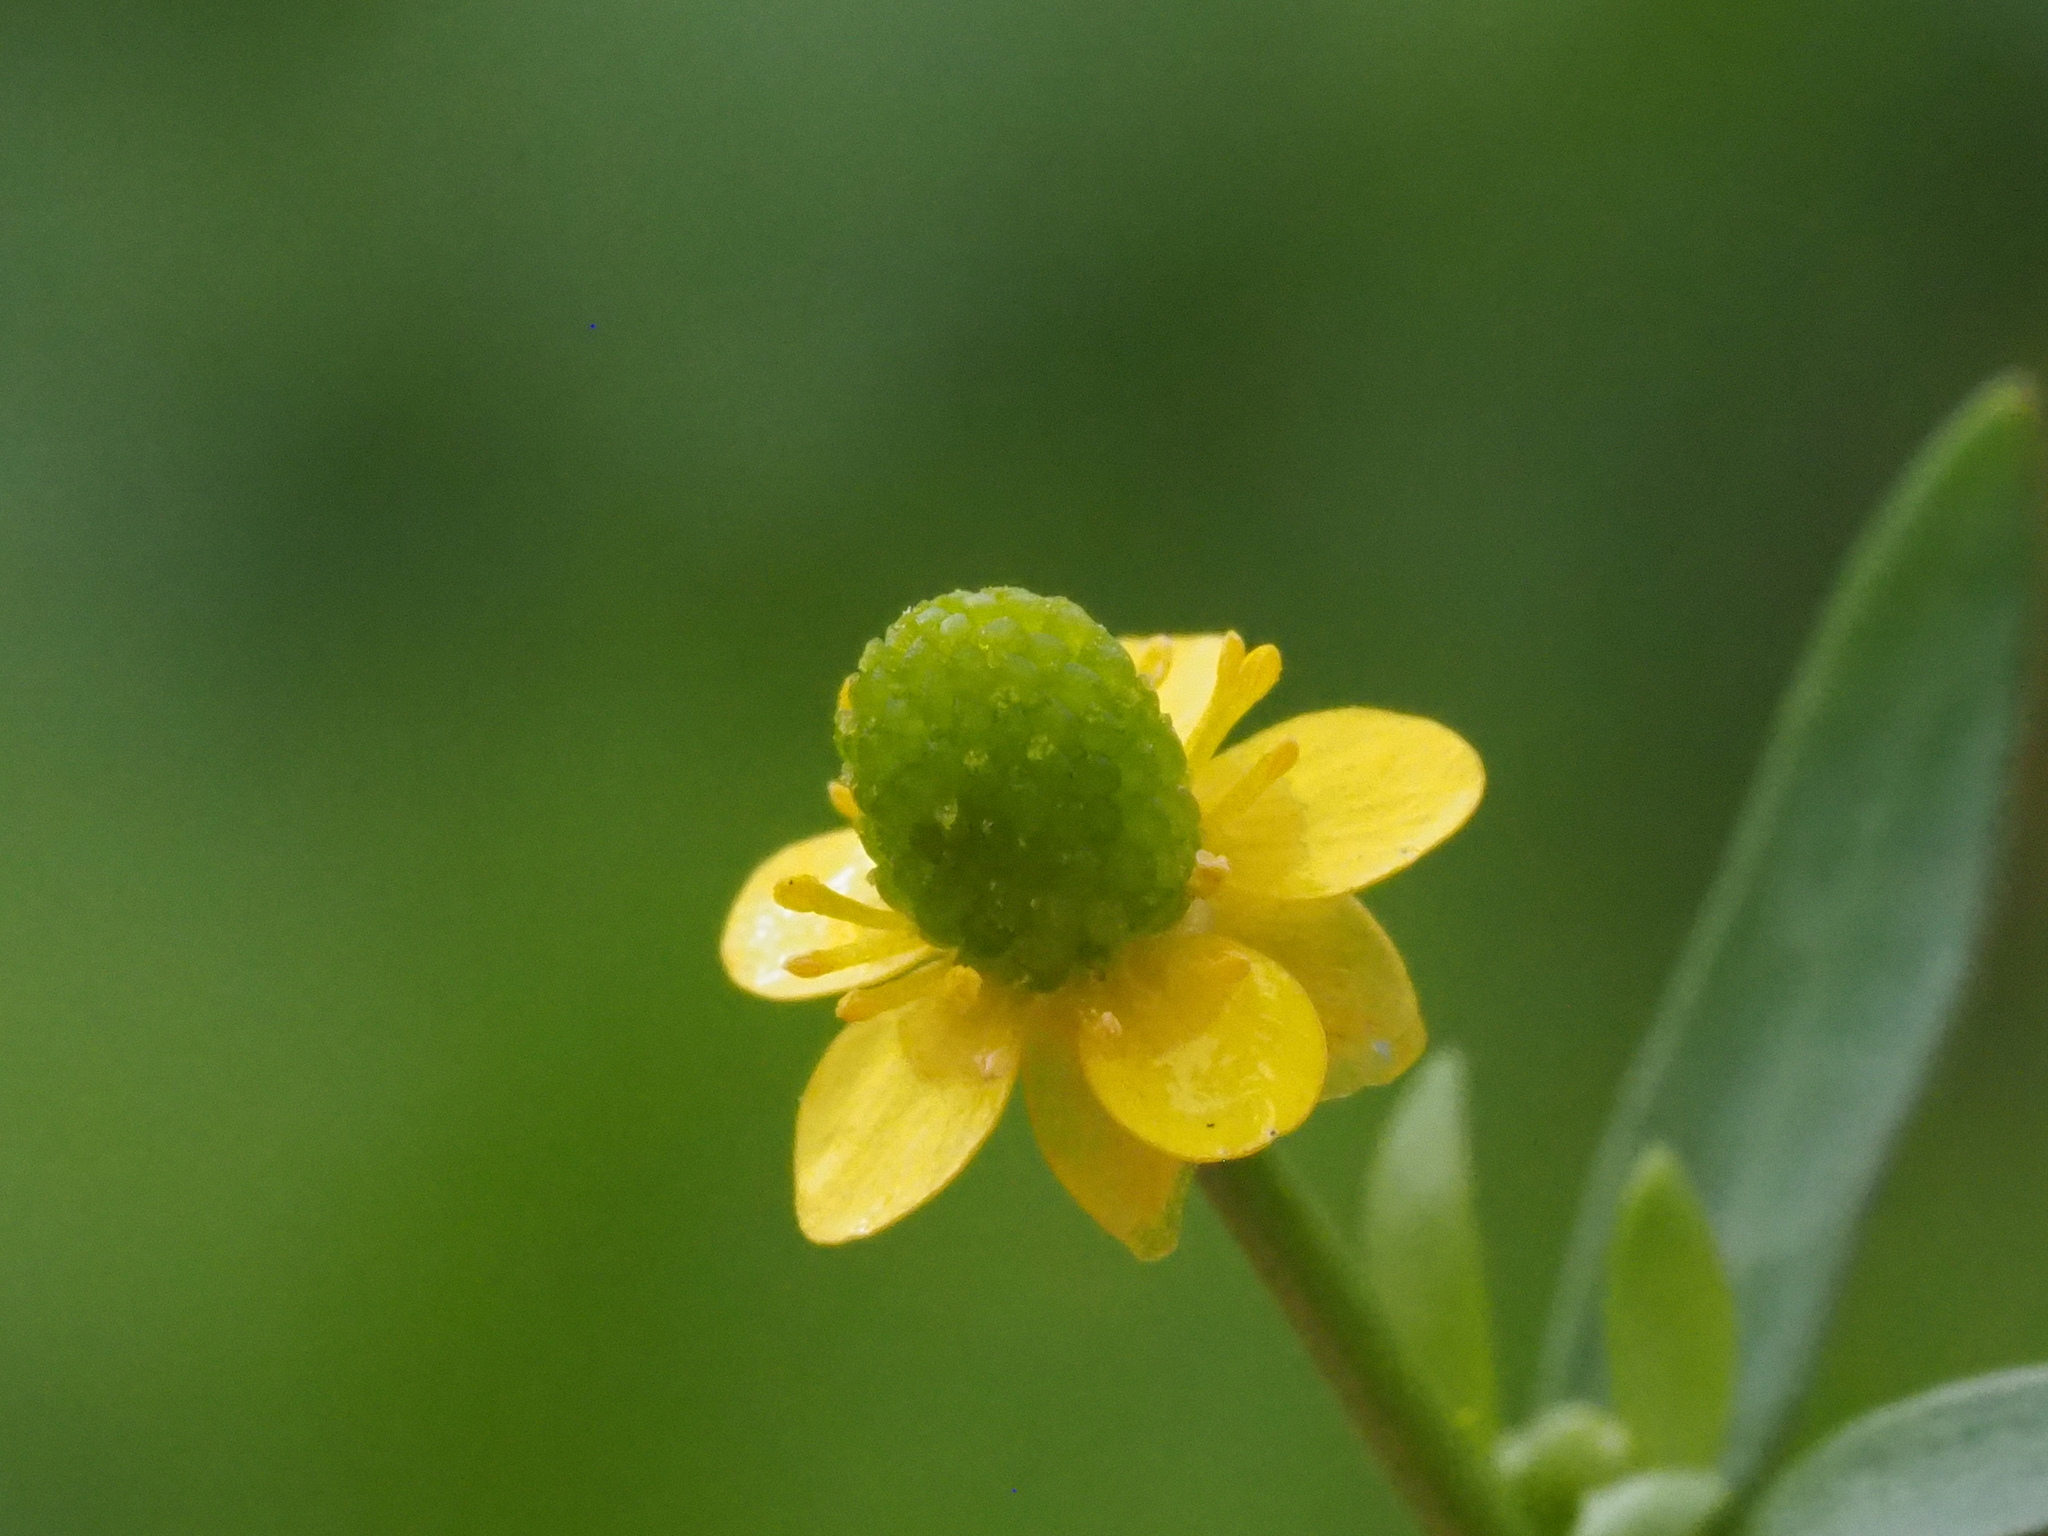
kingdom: Plantae
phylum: Tracheophyta
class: Magnoliopsida
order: Ranunculales
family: Ranunculaceae
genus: Ranunculus
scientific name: Ranunculus sceleratus
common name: Celery-leaved buttercup
